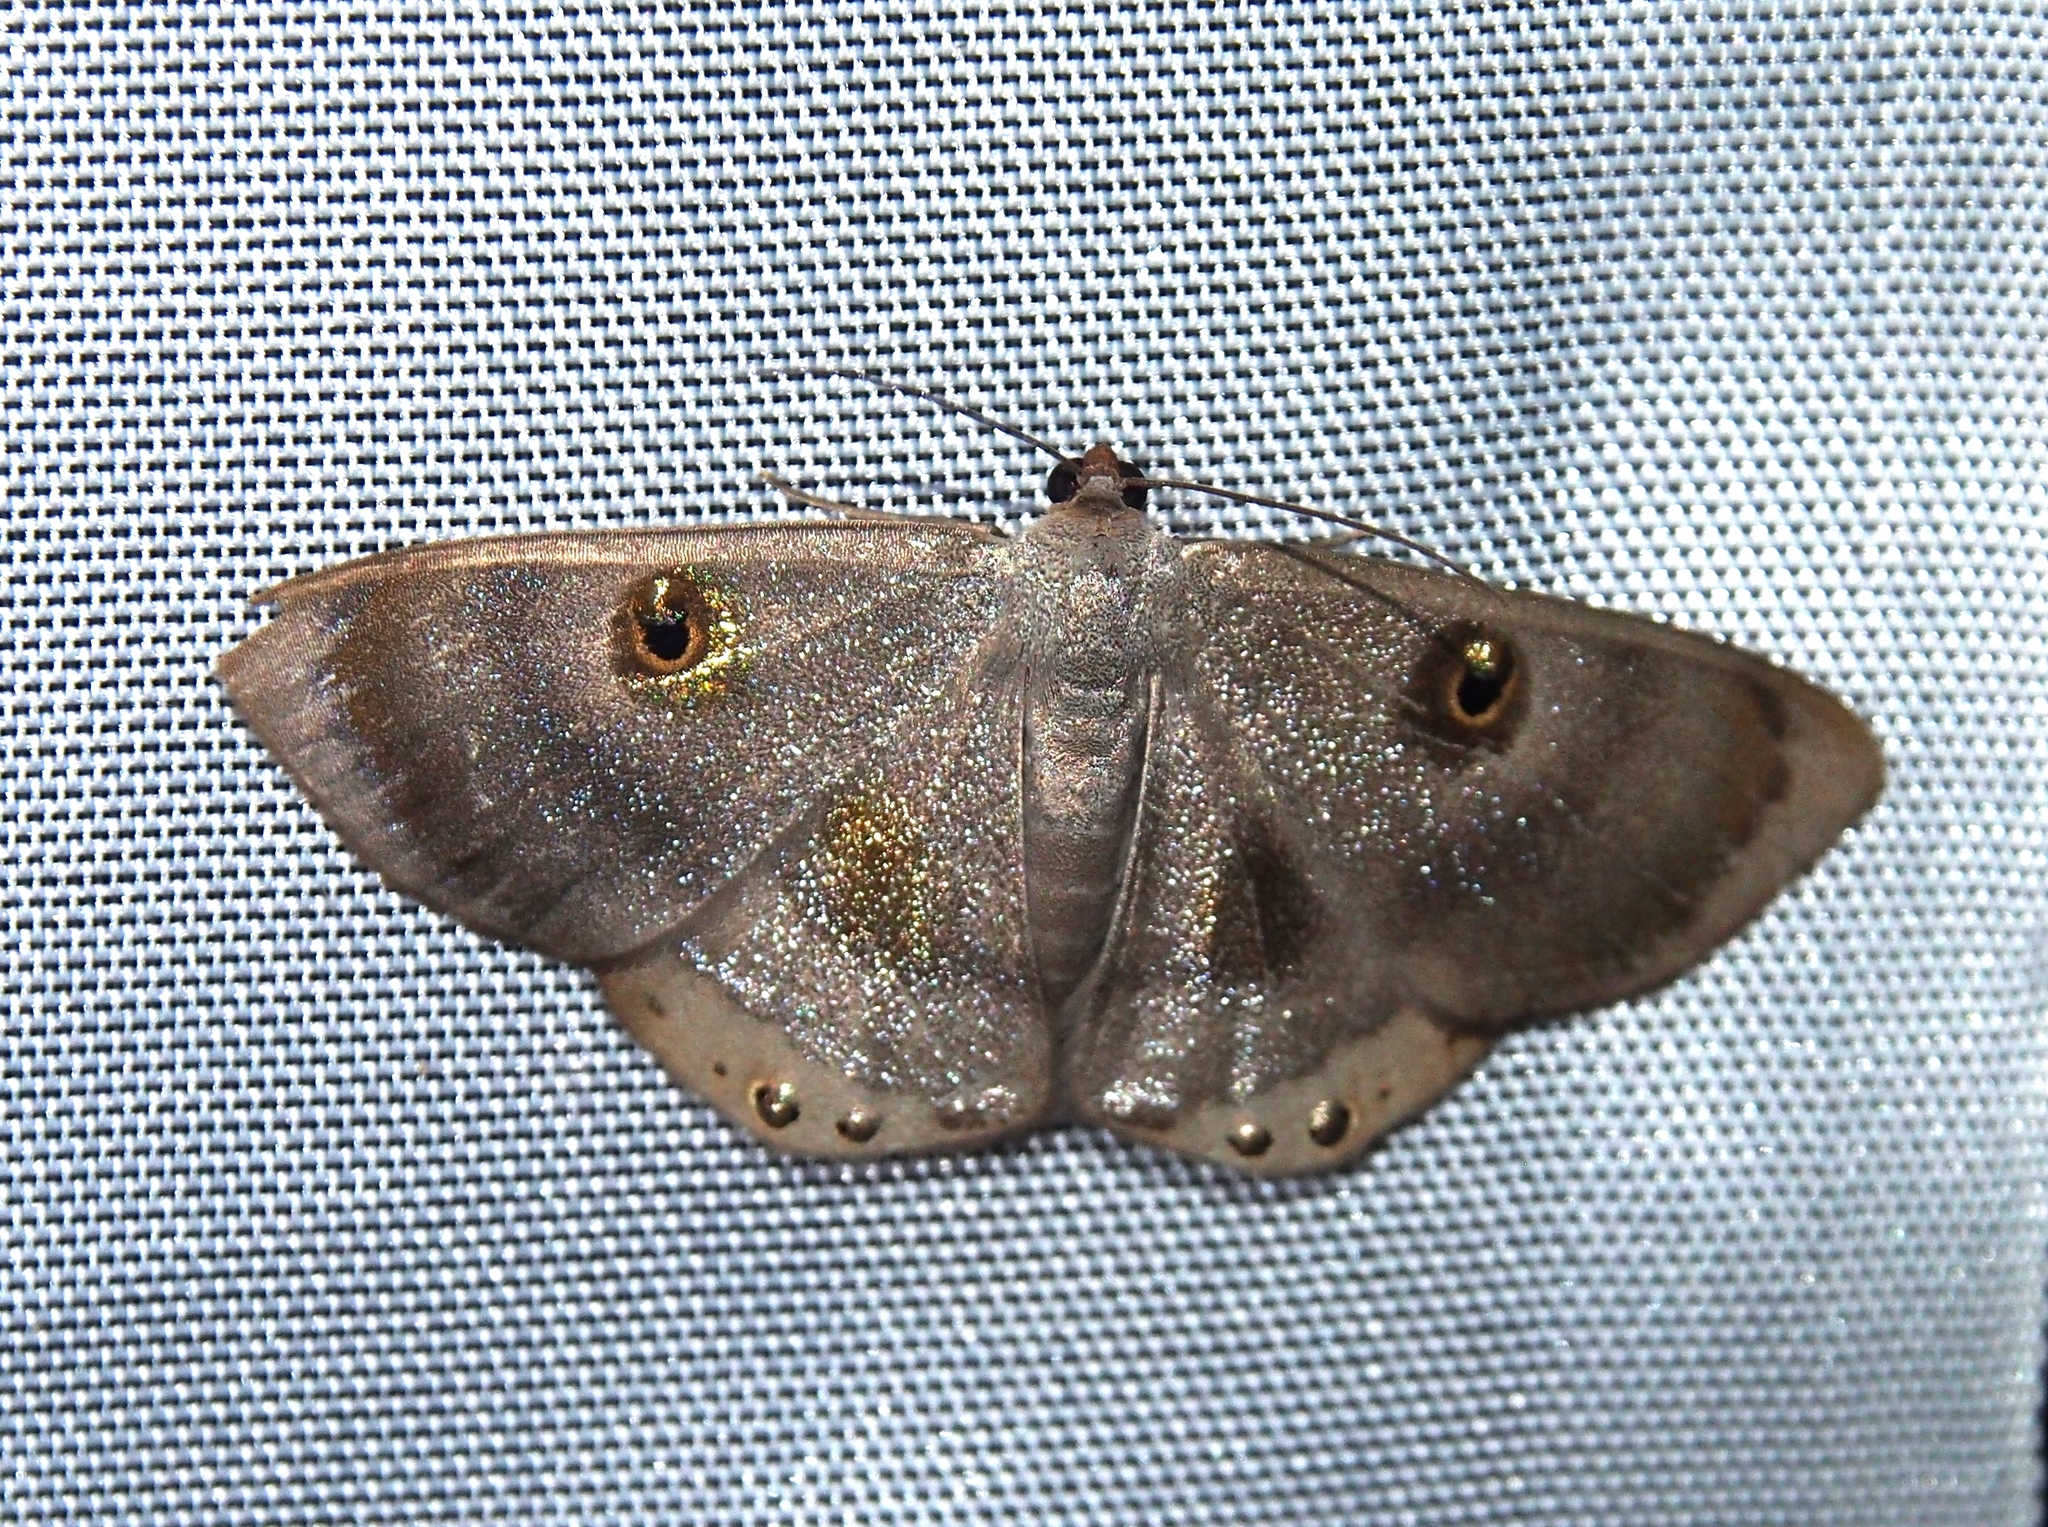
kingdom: Animalia
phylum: Arthropoda
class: Insecta
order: Lepidoptera
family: Geometridae
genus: Argyrotome
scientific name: Argyrotome alba
